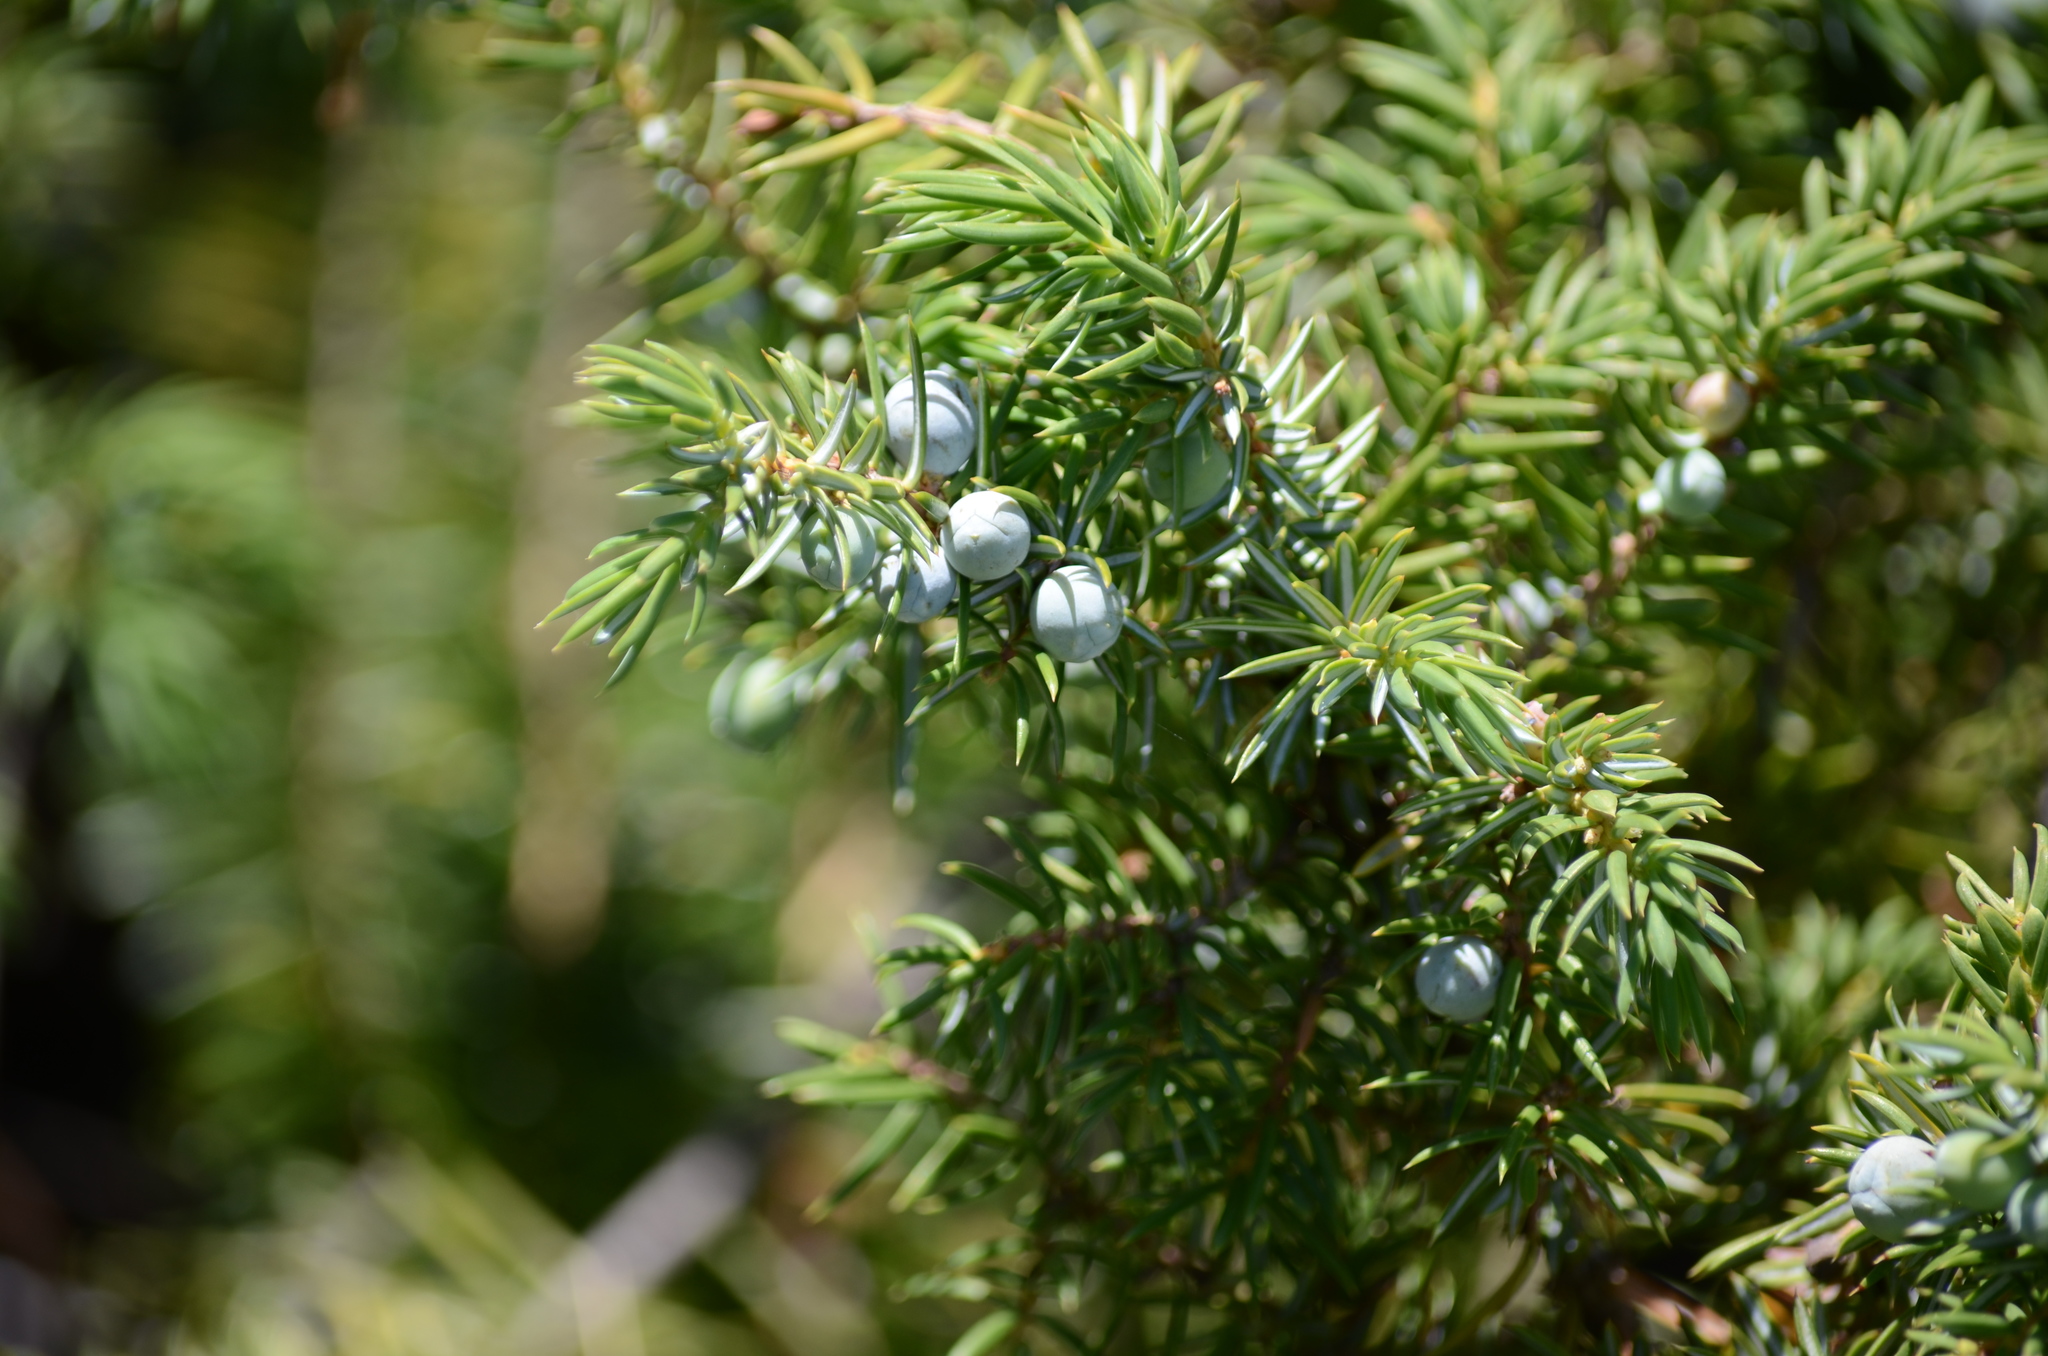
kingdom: Plantae
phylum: Tracheophyta
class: Pinopsida
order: Pinales
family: Cupressaceae
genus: Juniperus
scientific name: Juniperus communis
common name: Common juniper
